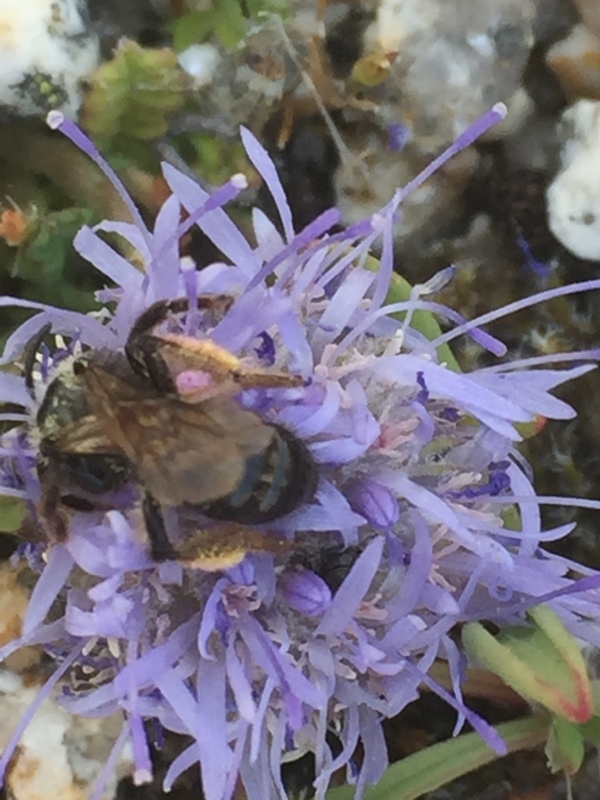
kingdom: Plantae
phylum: Tracheophyta
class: Magnoliopsida
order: Asterales
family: Campanulaceae
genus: Jasione
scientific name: Jasione crispa
